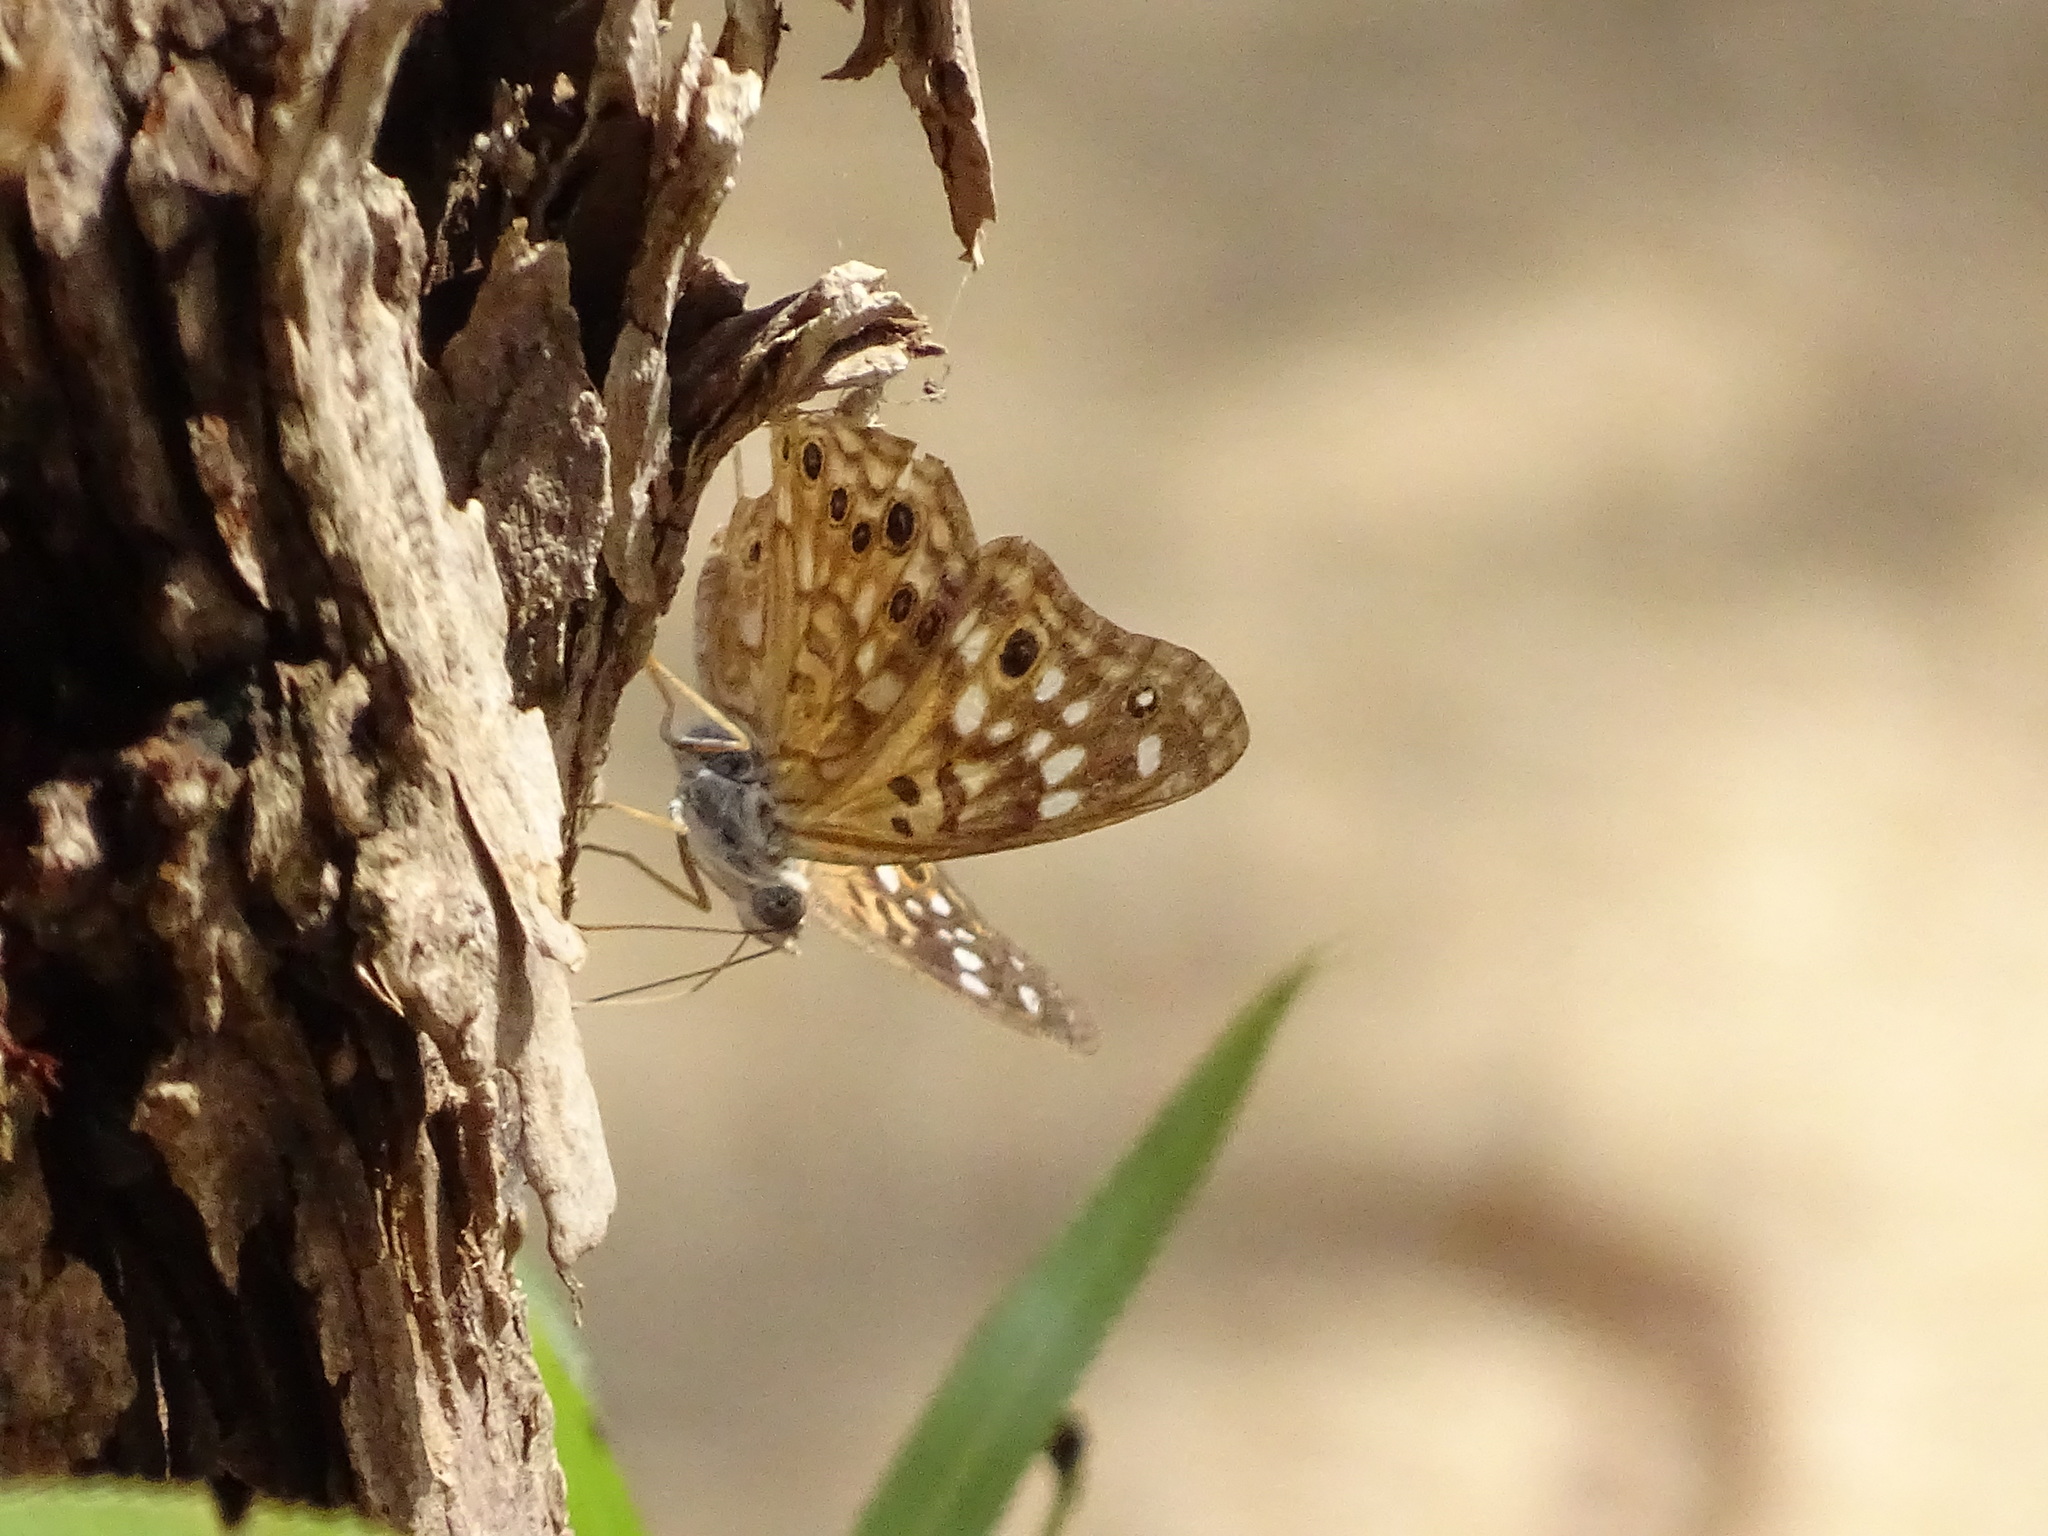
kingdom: Animalia
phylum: Arthropoda
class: Insecta
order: Lepidoptera
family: Nymphalidae
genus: Asterocampa
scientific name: Asterocampa celtis
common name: Hackberry emperor
